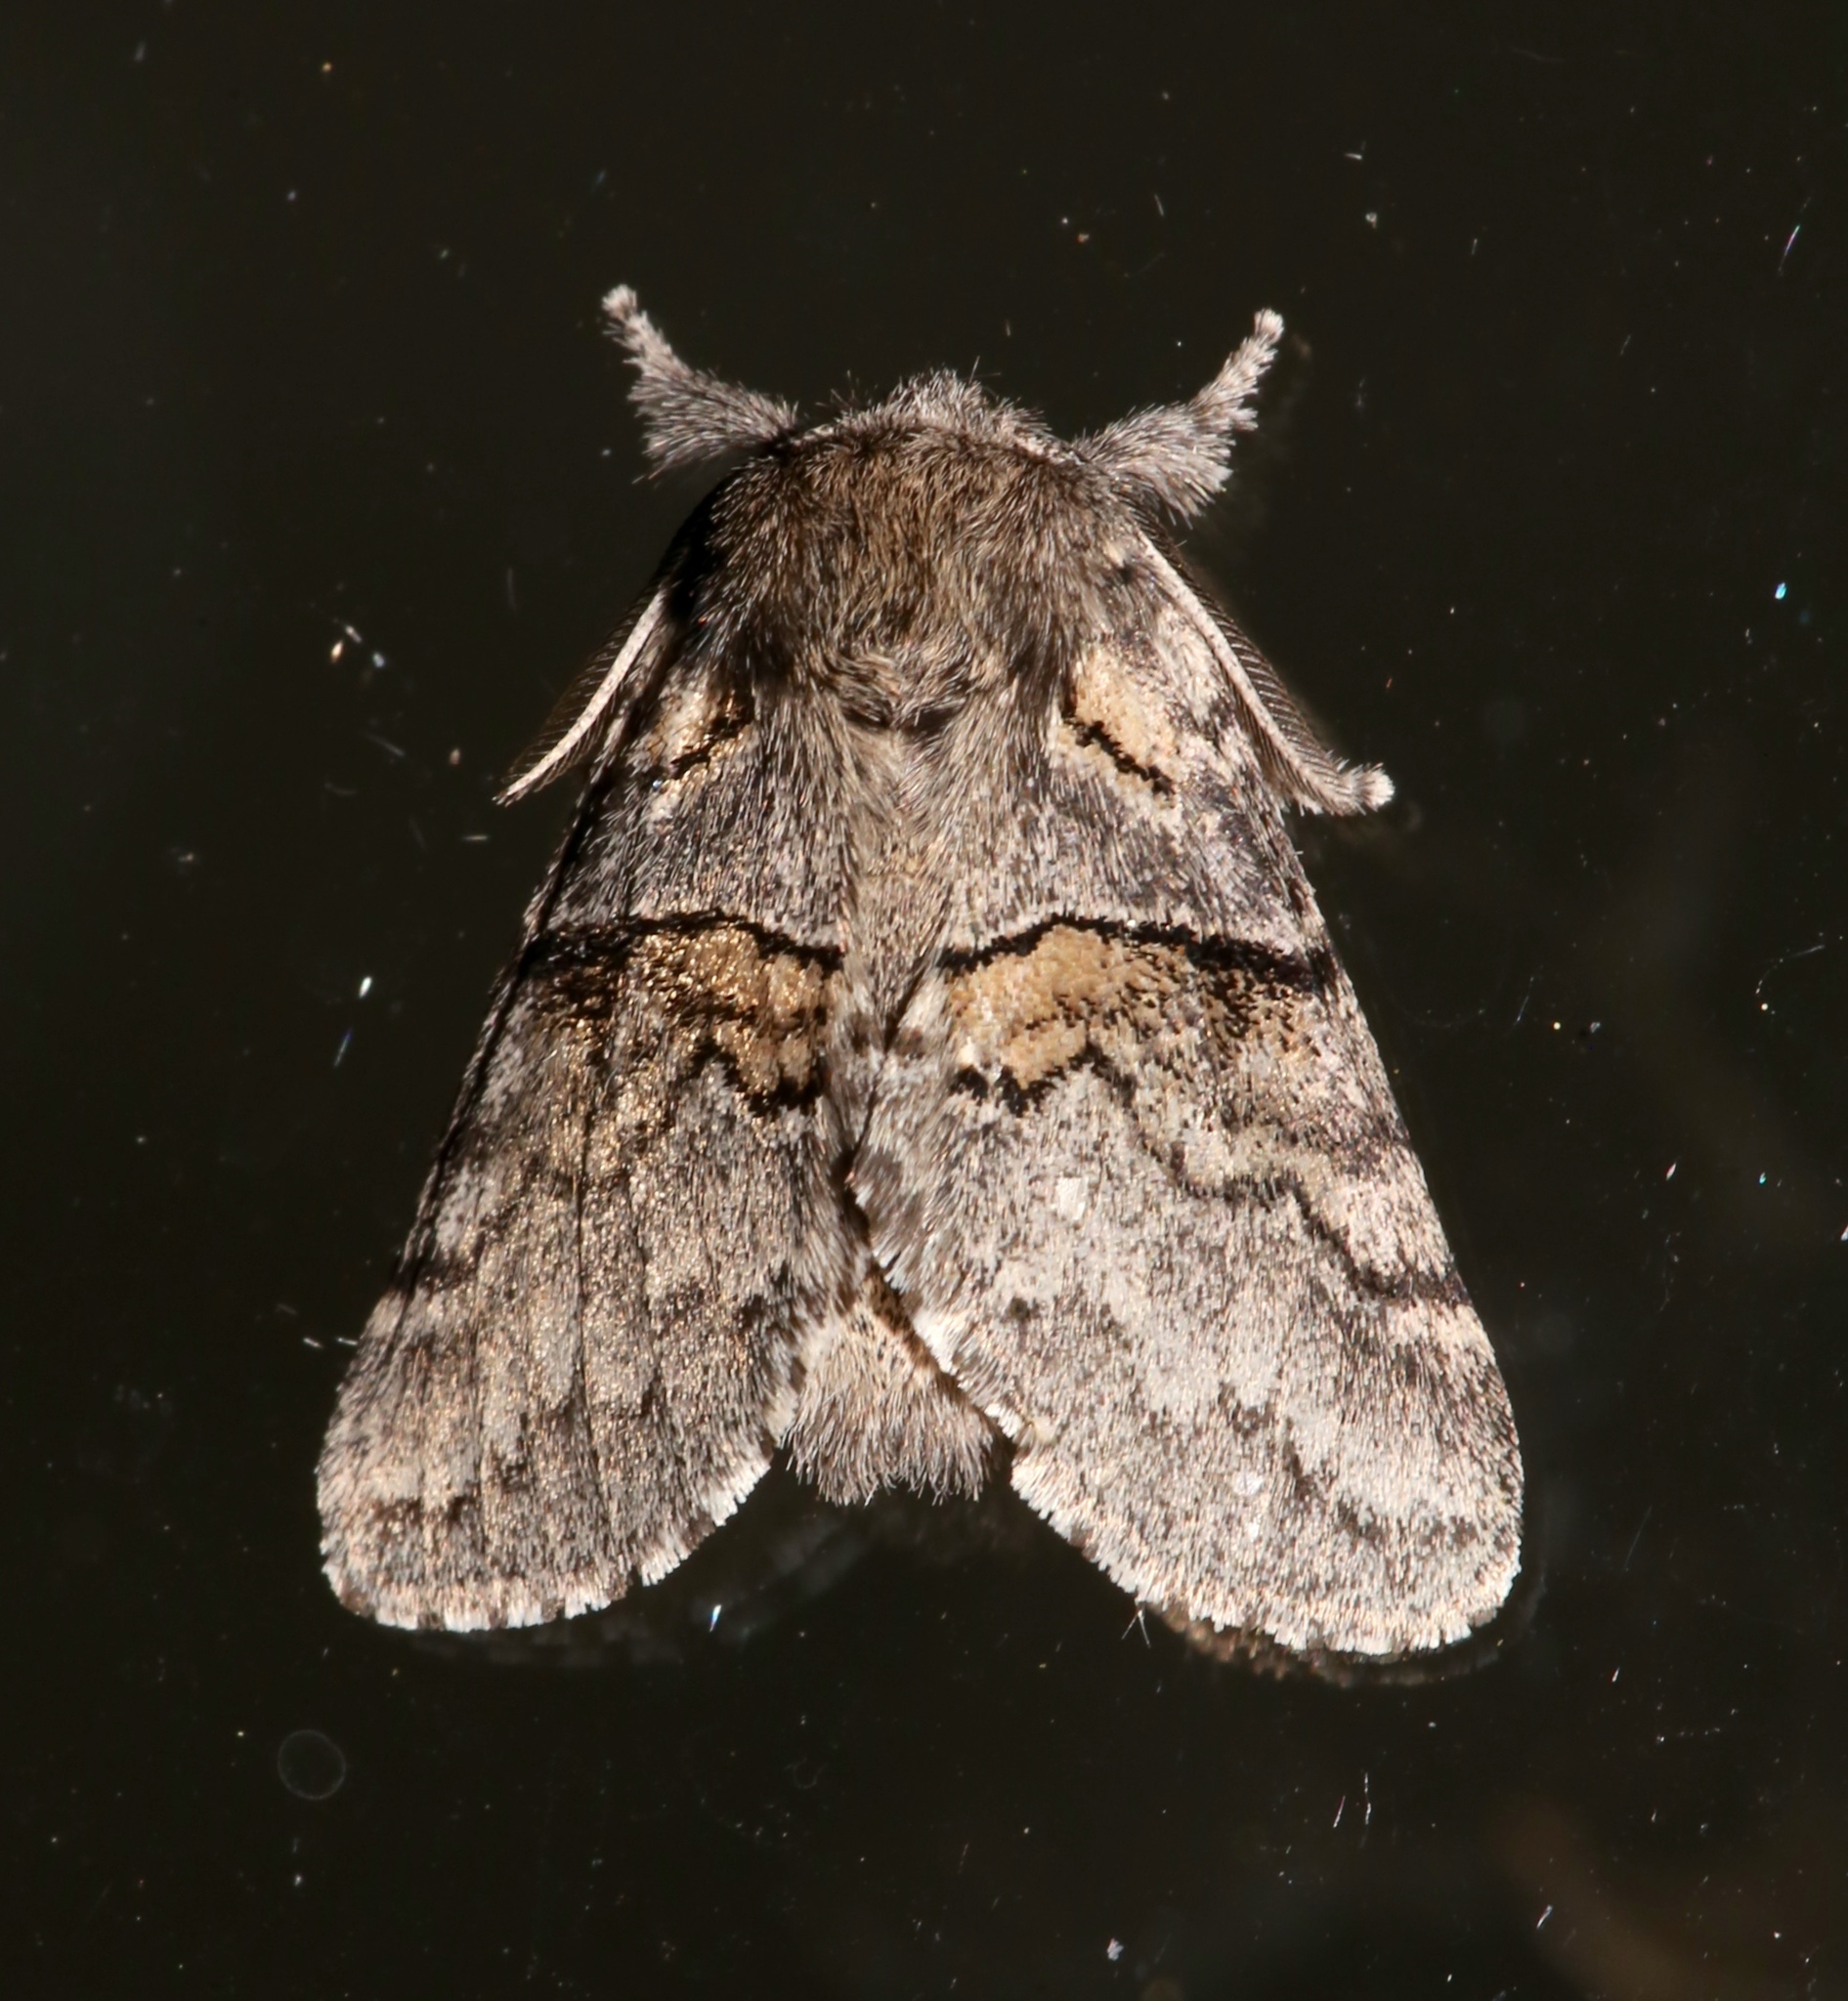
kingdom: Animalia
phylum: Arthropoda
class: Insecta
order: Lepidoptera
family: Notodontidae
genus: Gluphisia
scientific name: Gluphisia septentrionis
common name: Common gluphisia
